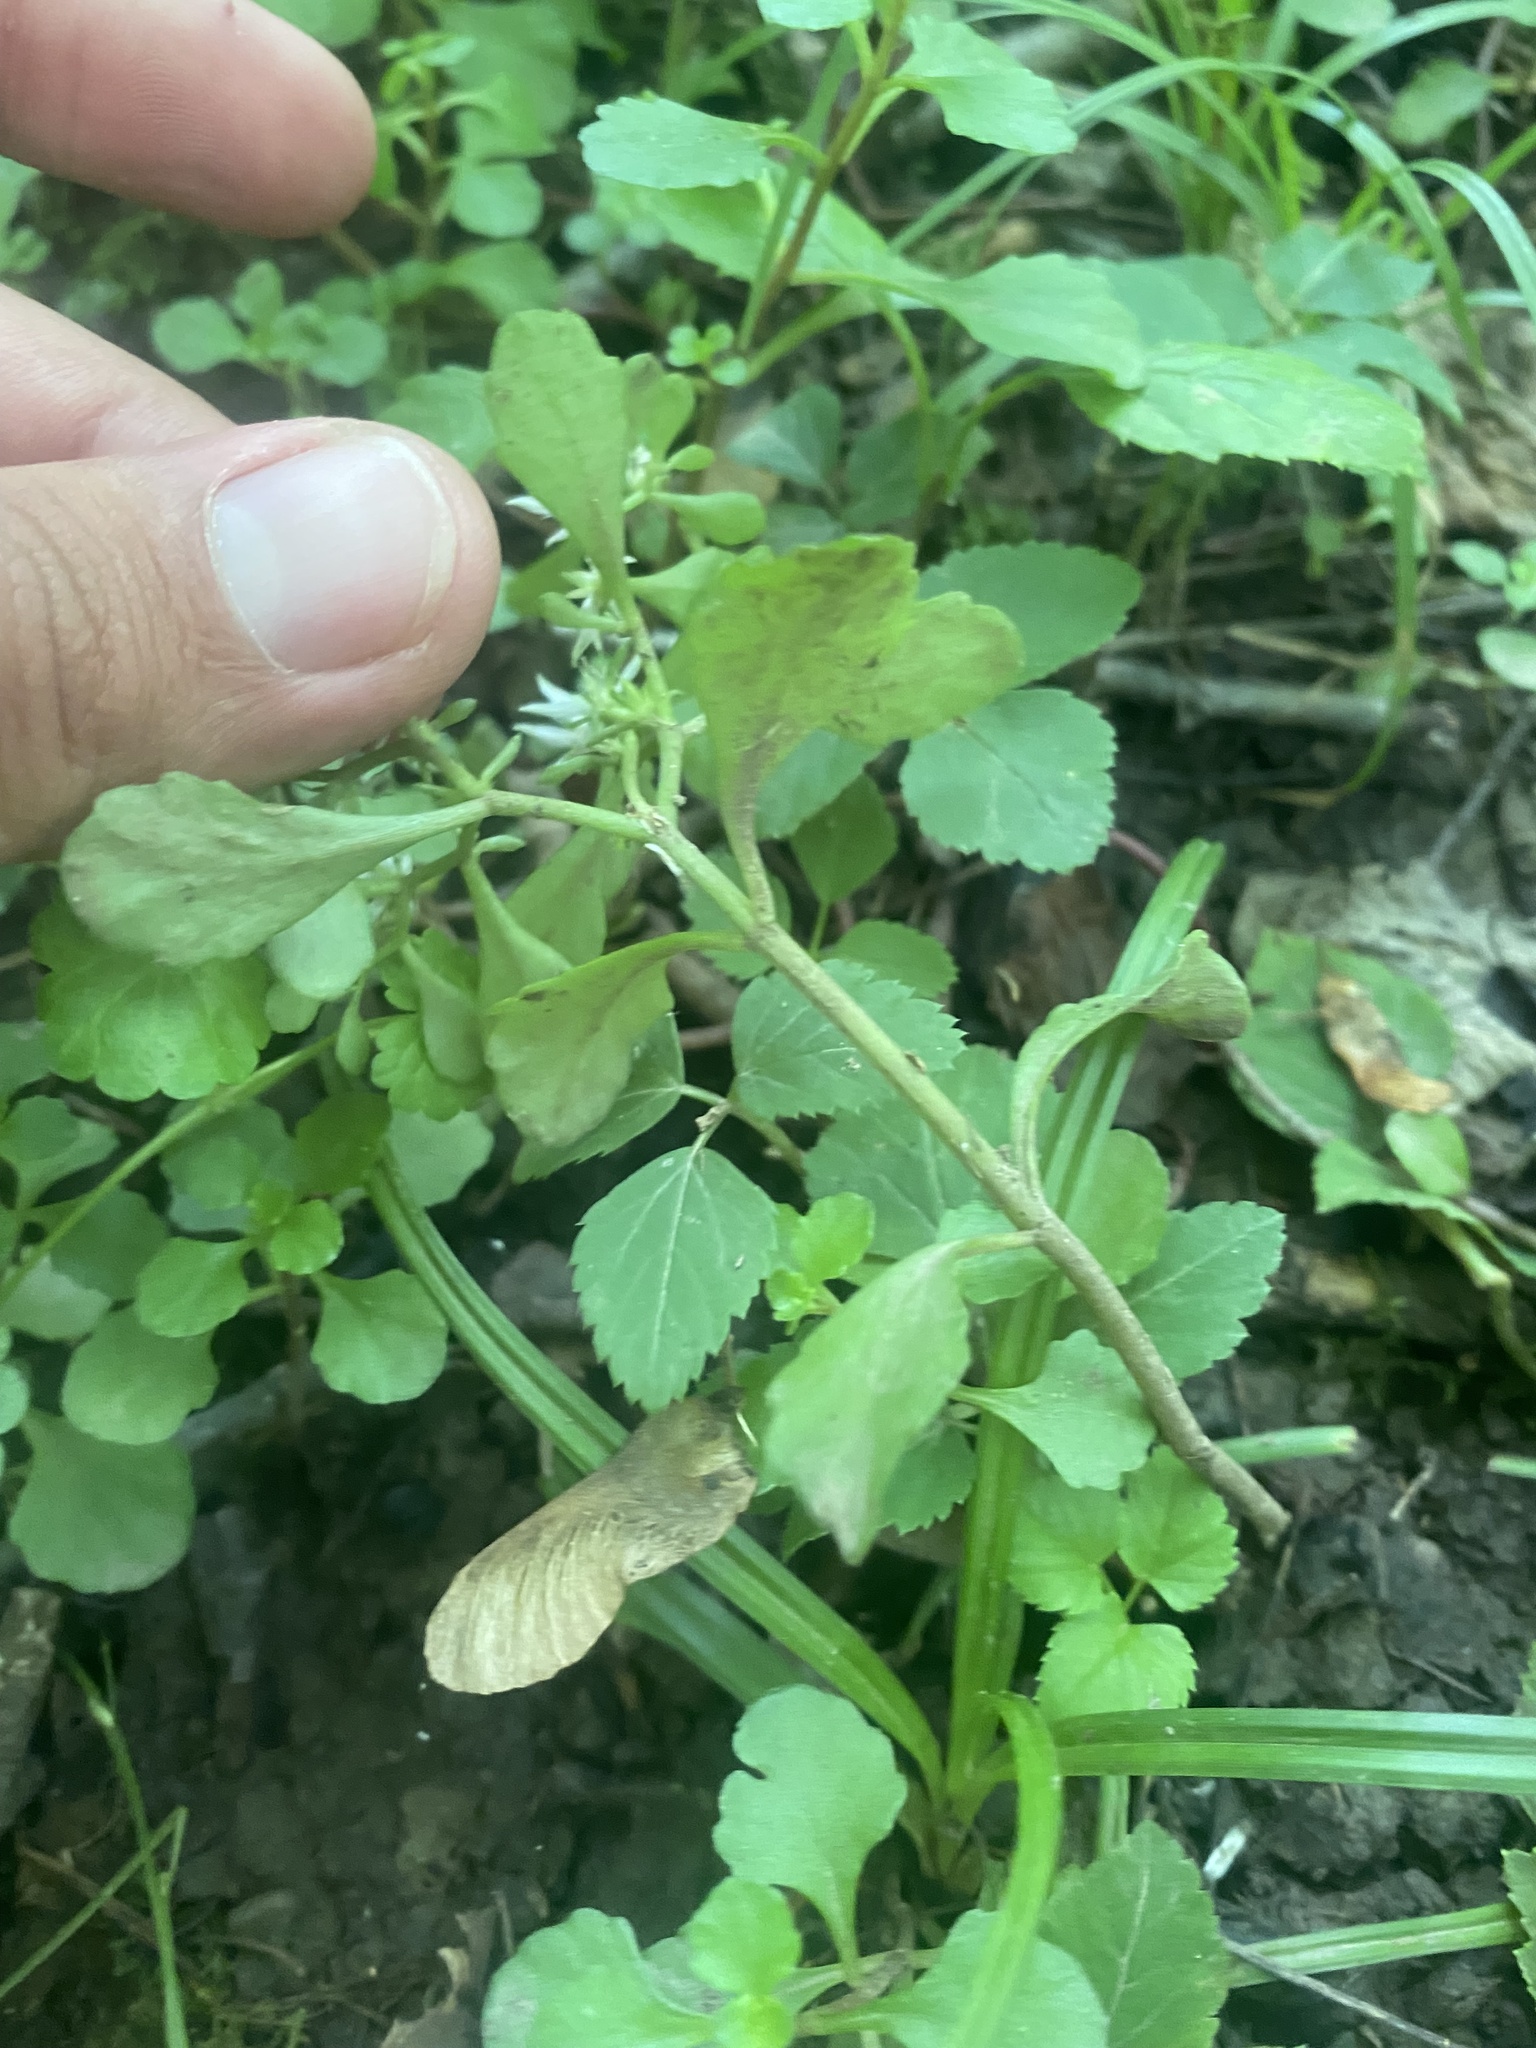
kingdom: Plantae
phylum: Tracheophyta
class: Magnoliopsida
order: Saxifragales
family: Crassulaceae
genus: Phedimus
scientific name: Phedimus stolonifer
